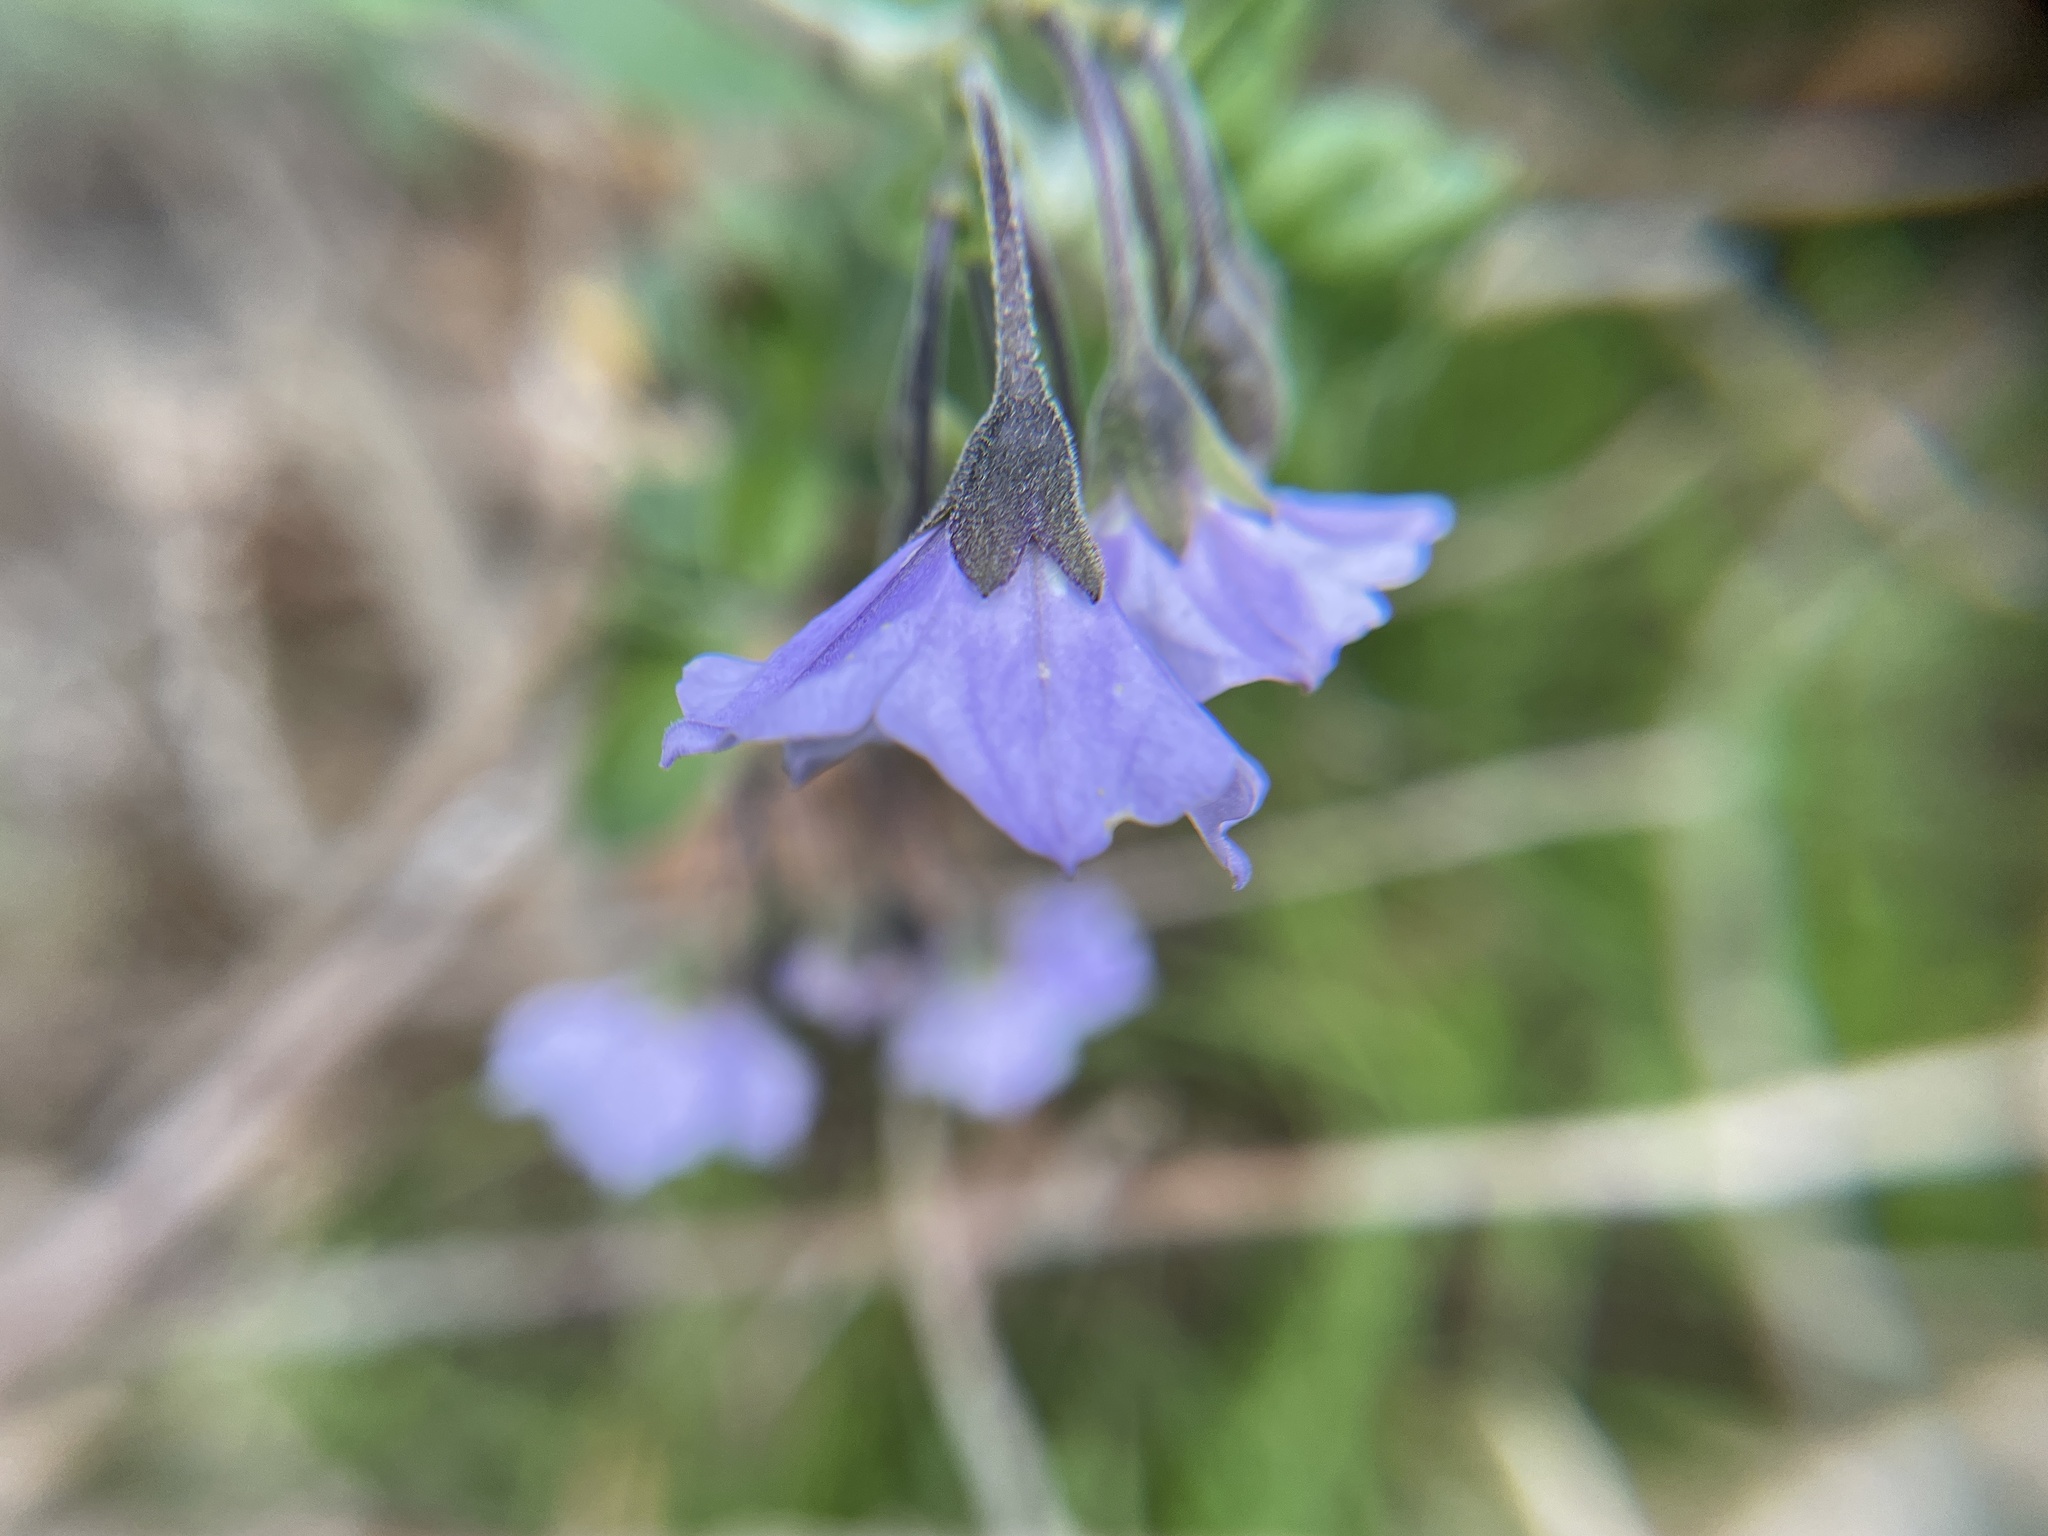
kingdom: Plantae
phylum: Tracheophyta
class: Magnoliopsida
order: Solanales
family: Solanaceae
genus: Solanum
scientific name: Solanum umbelliferum
